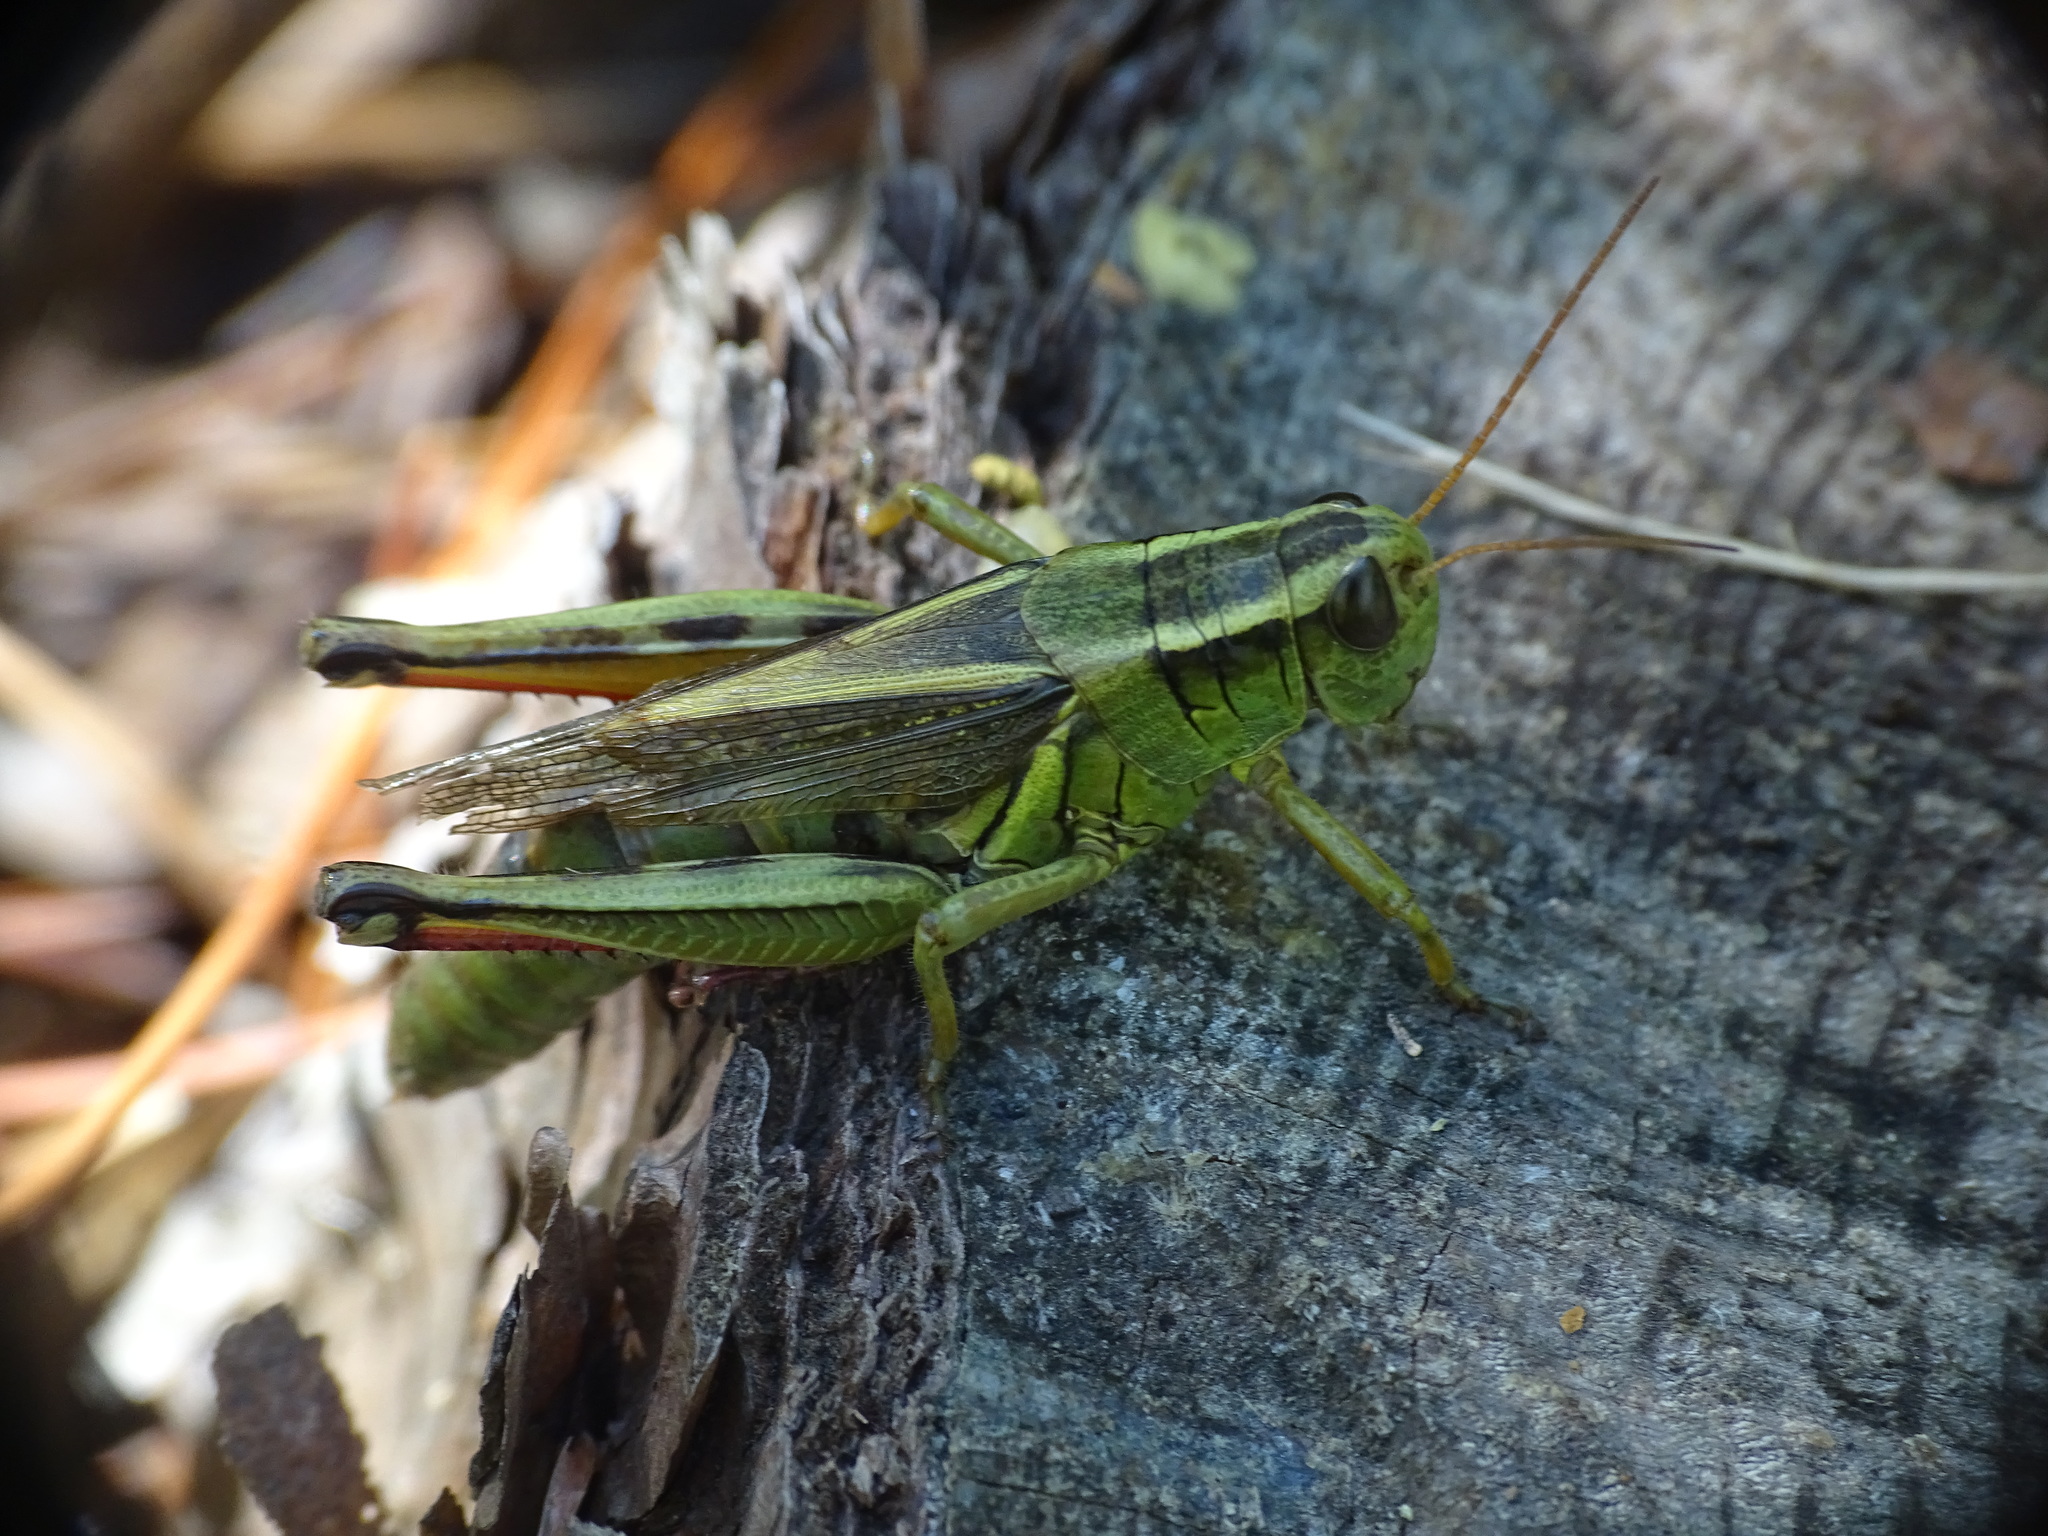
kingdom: Animalia
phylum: Arthropoda
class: Insecta
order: Orthoptera
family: Acrididae
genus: Melanoplus
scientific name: Melanoplus bivittatus
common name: Two-striped grasshopper
